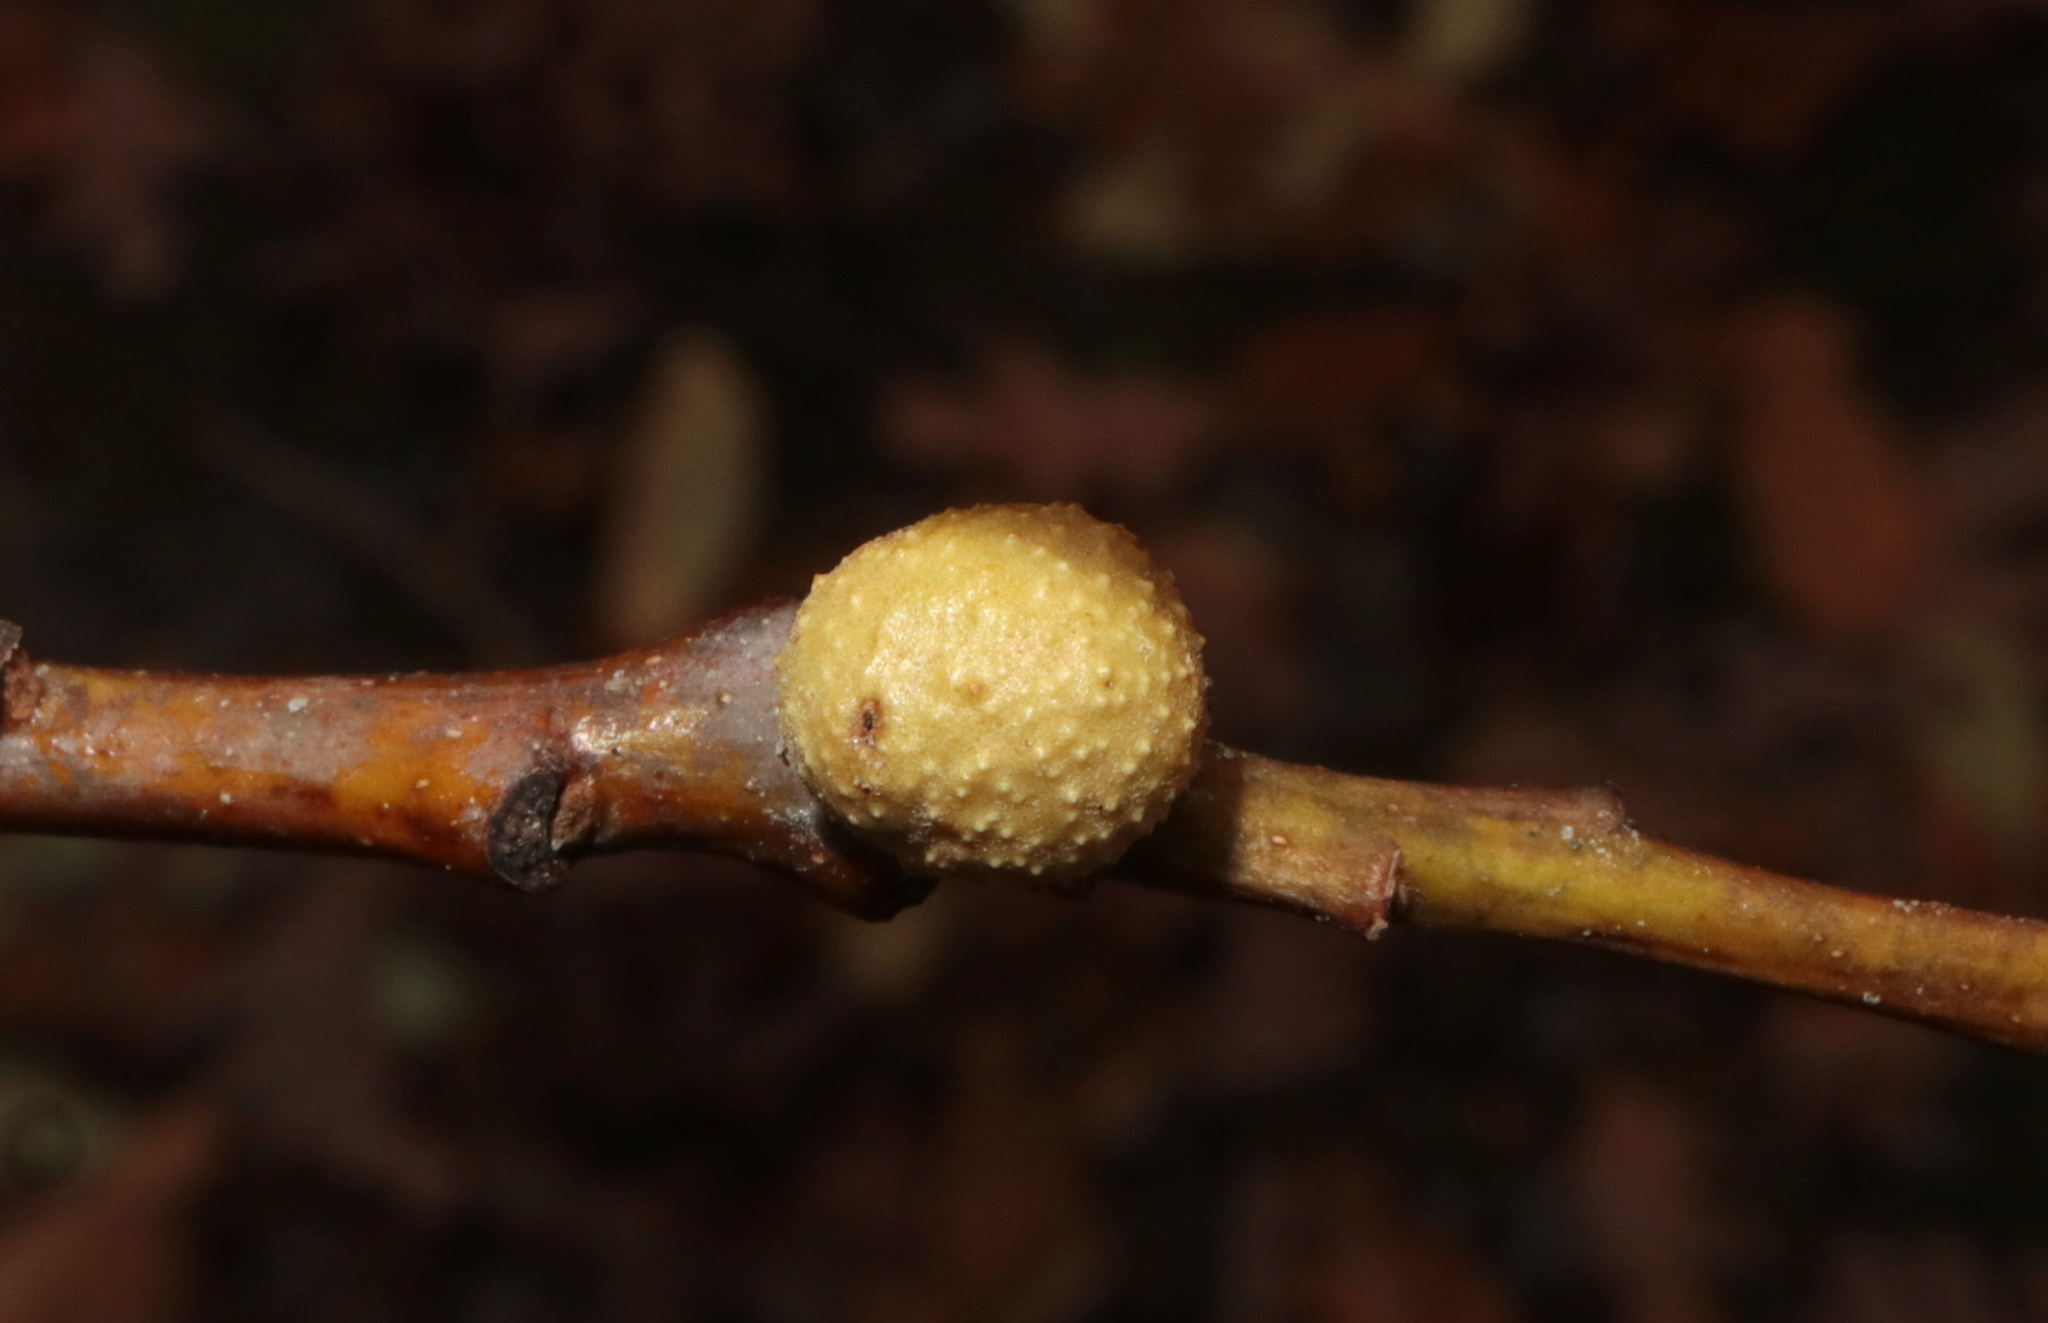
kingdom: Animalia
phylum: Arthropoda
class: Insecta
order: Hymenoptera
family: Cynipidae
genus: Disholcaspis
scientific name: Disholcaspis quercusglobulus
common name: Round bullet gall wasp
